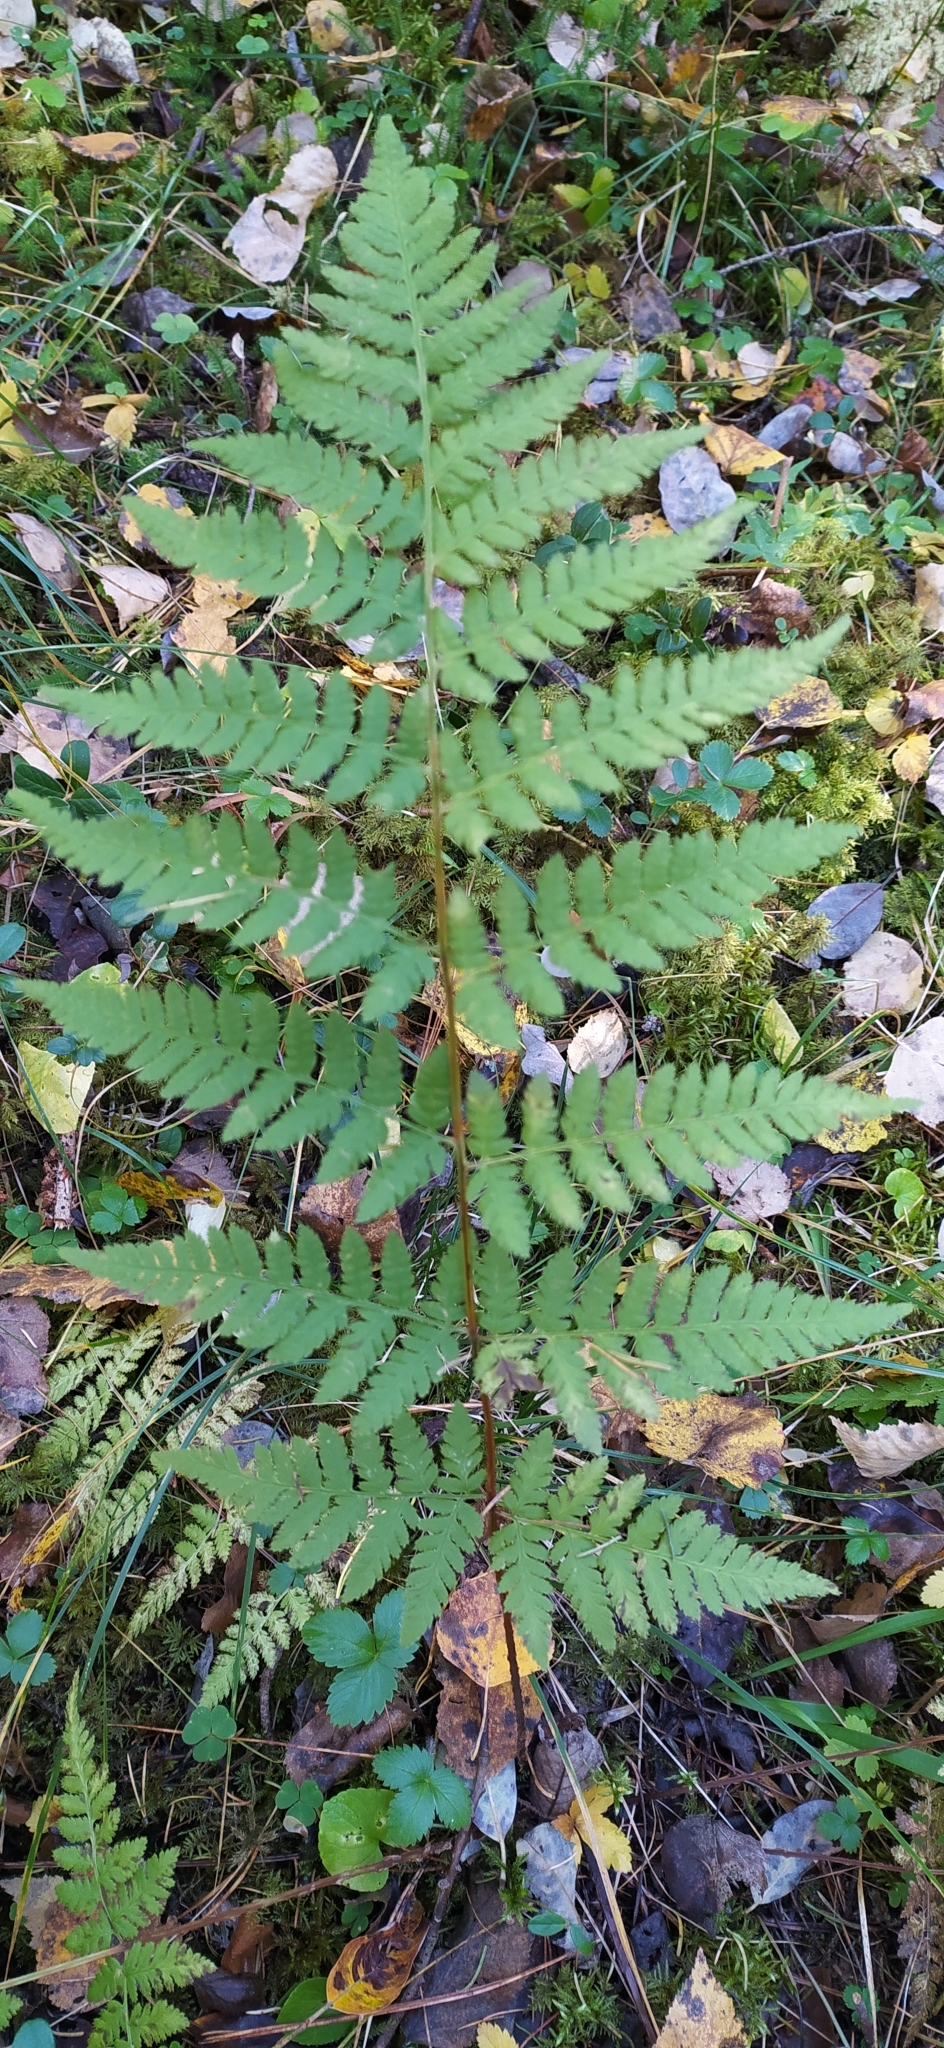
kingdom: Plantae
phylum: Tracheophyta
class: Polypodiopsida
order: Polypodiales
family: Dryopteridaceae
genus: Dryopteris
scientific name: Dryopteris carthusiana
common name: Narrow buckler-fern
